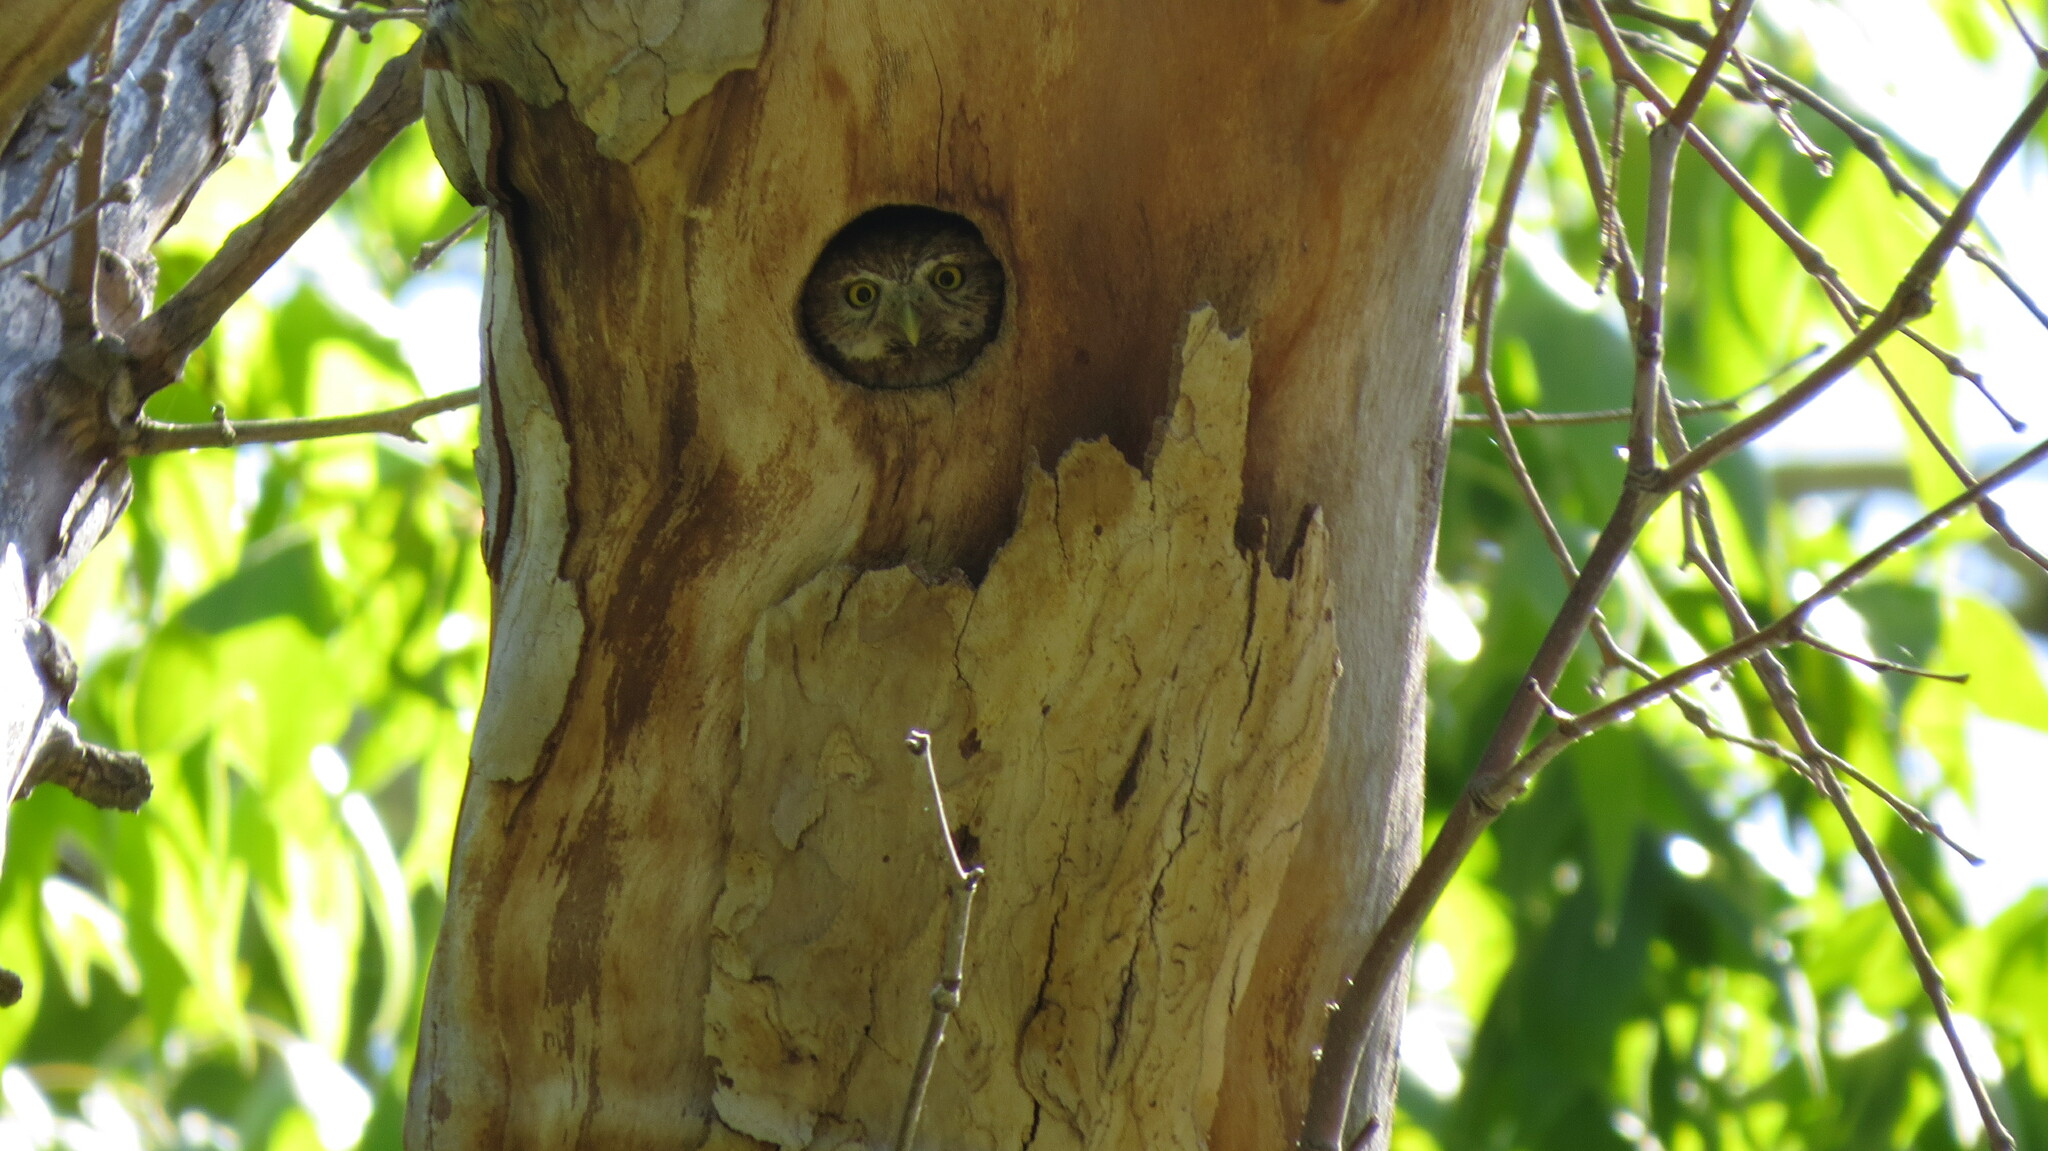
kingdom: Animalia
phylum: Chordata
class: Aves
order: Strigiformes
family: Strigidae
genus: Glaucidium
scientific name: Glaucidium gnoma
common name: Northern pygmy-owl
